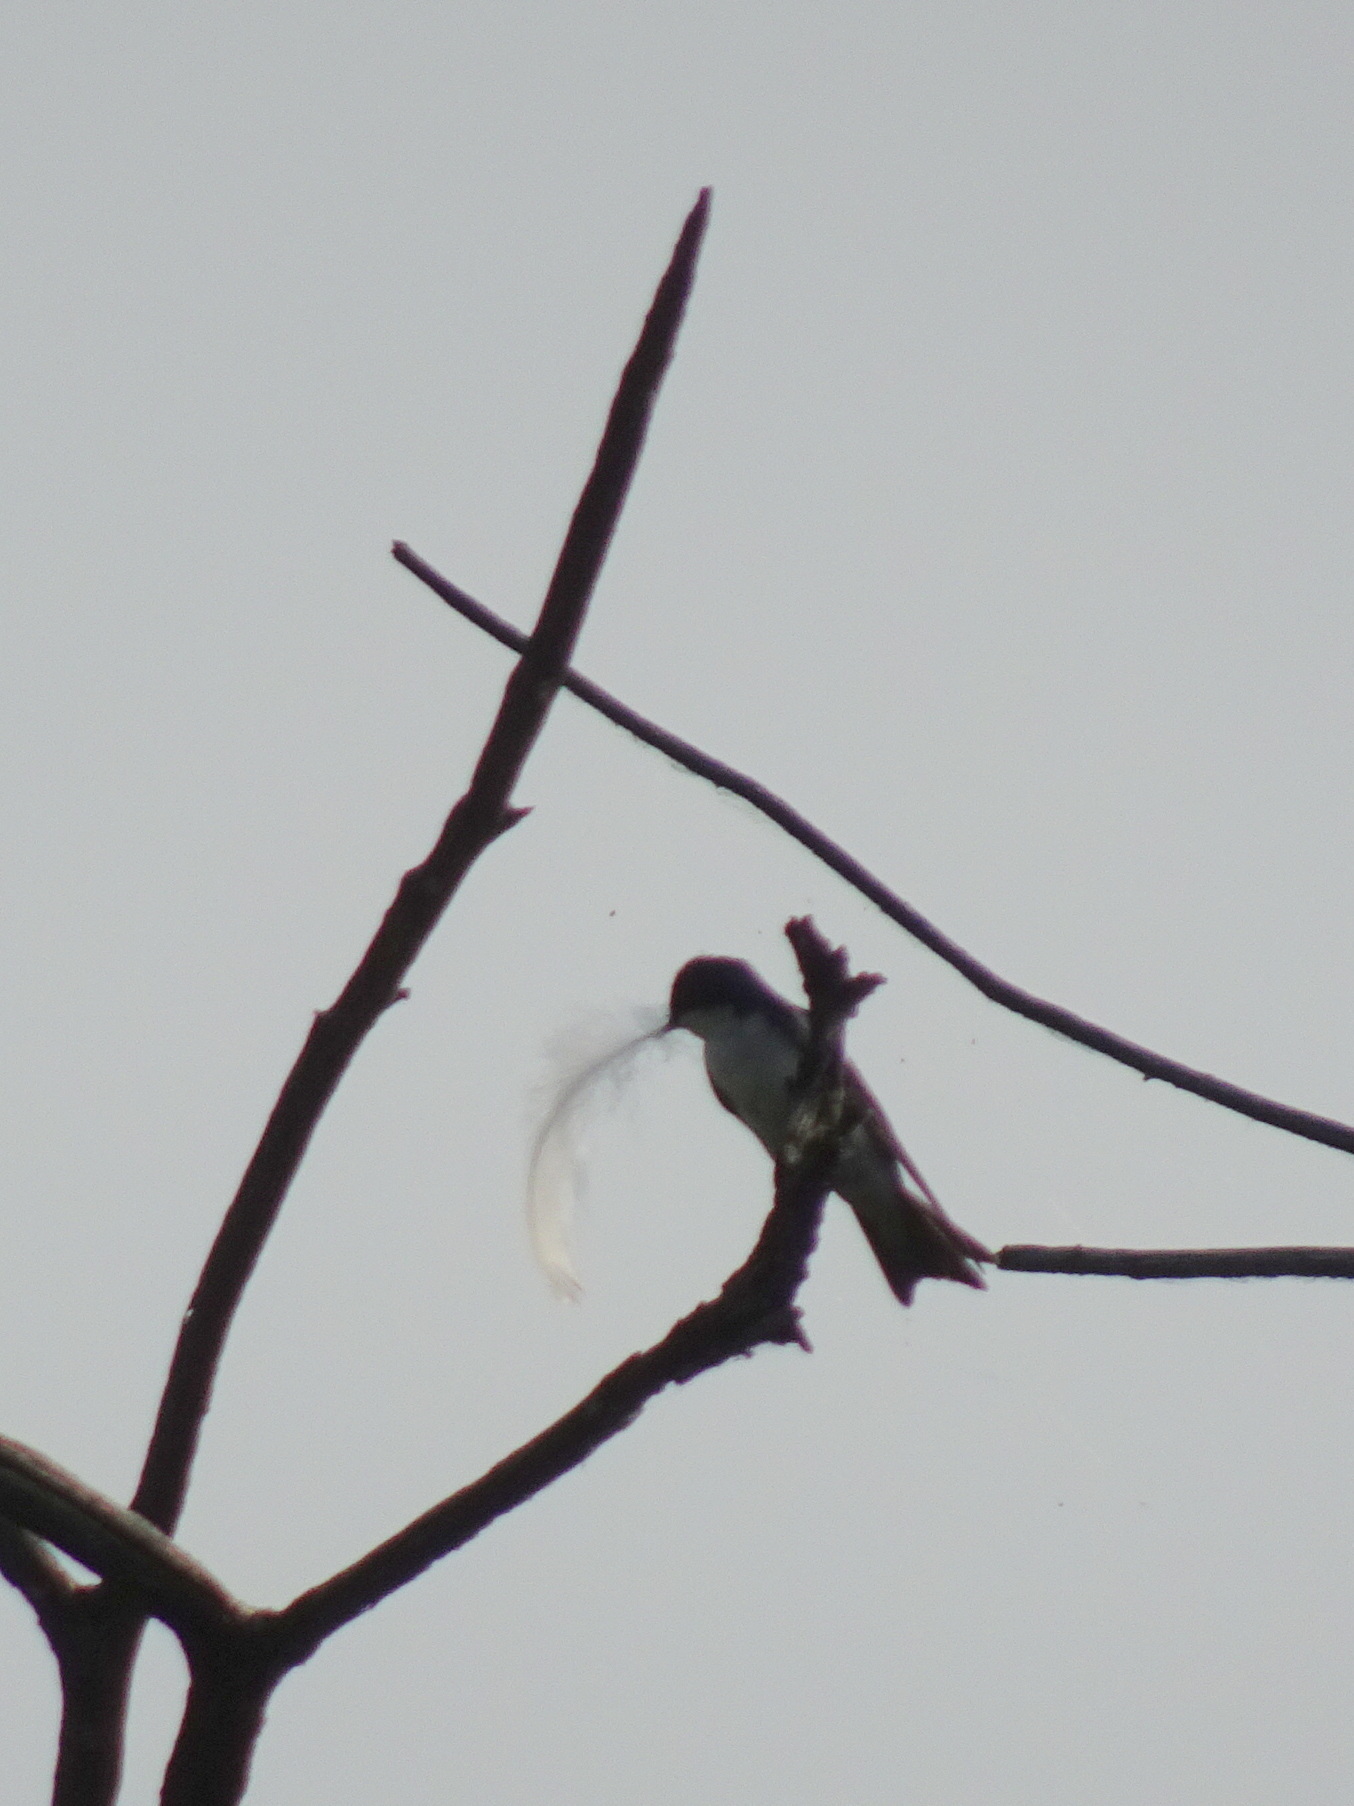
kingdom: Animalia
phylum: Chordata
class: Aves
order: Passeriformes
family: Hirundinidae
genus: Tachycineta
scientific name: Tachycineta bicolor
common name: Tree swallow
